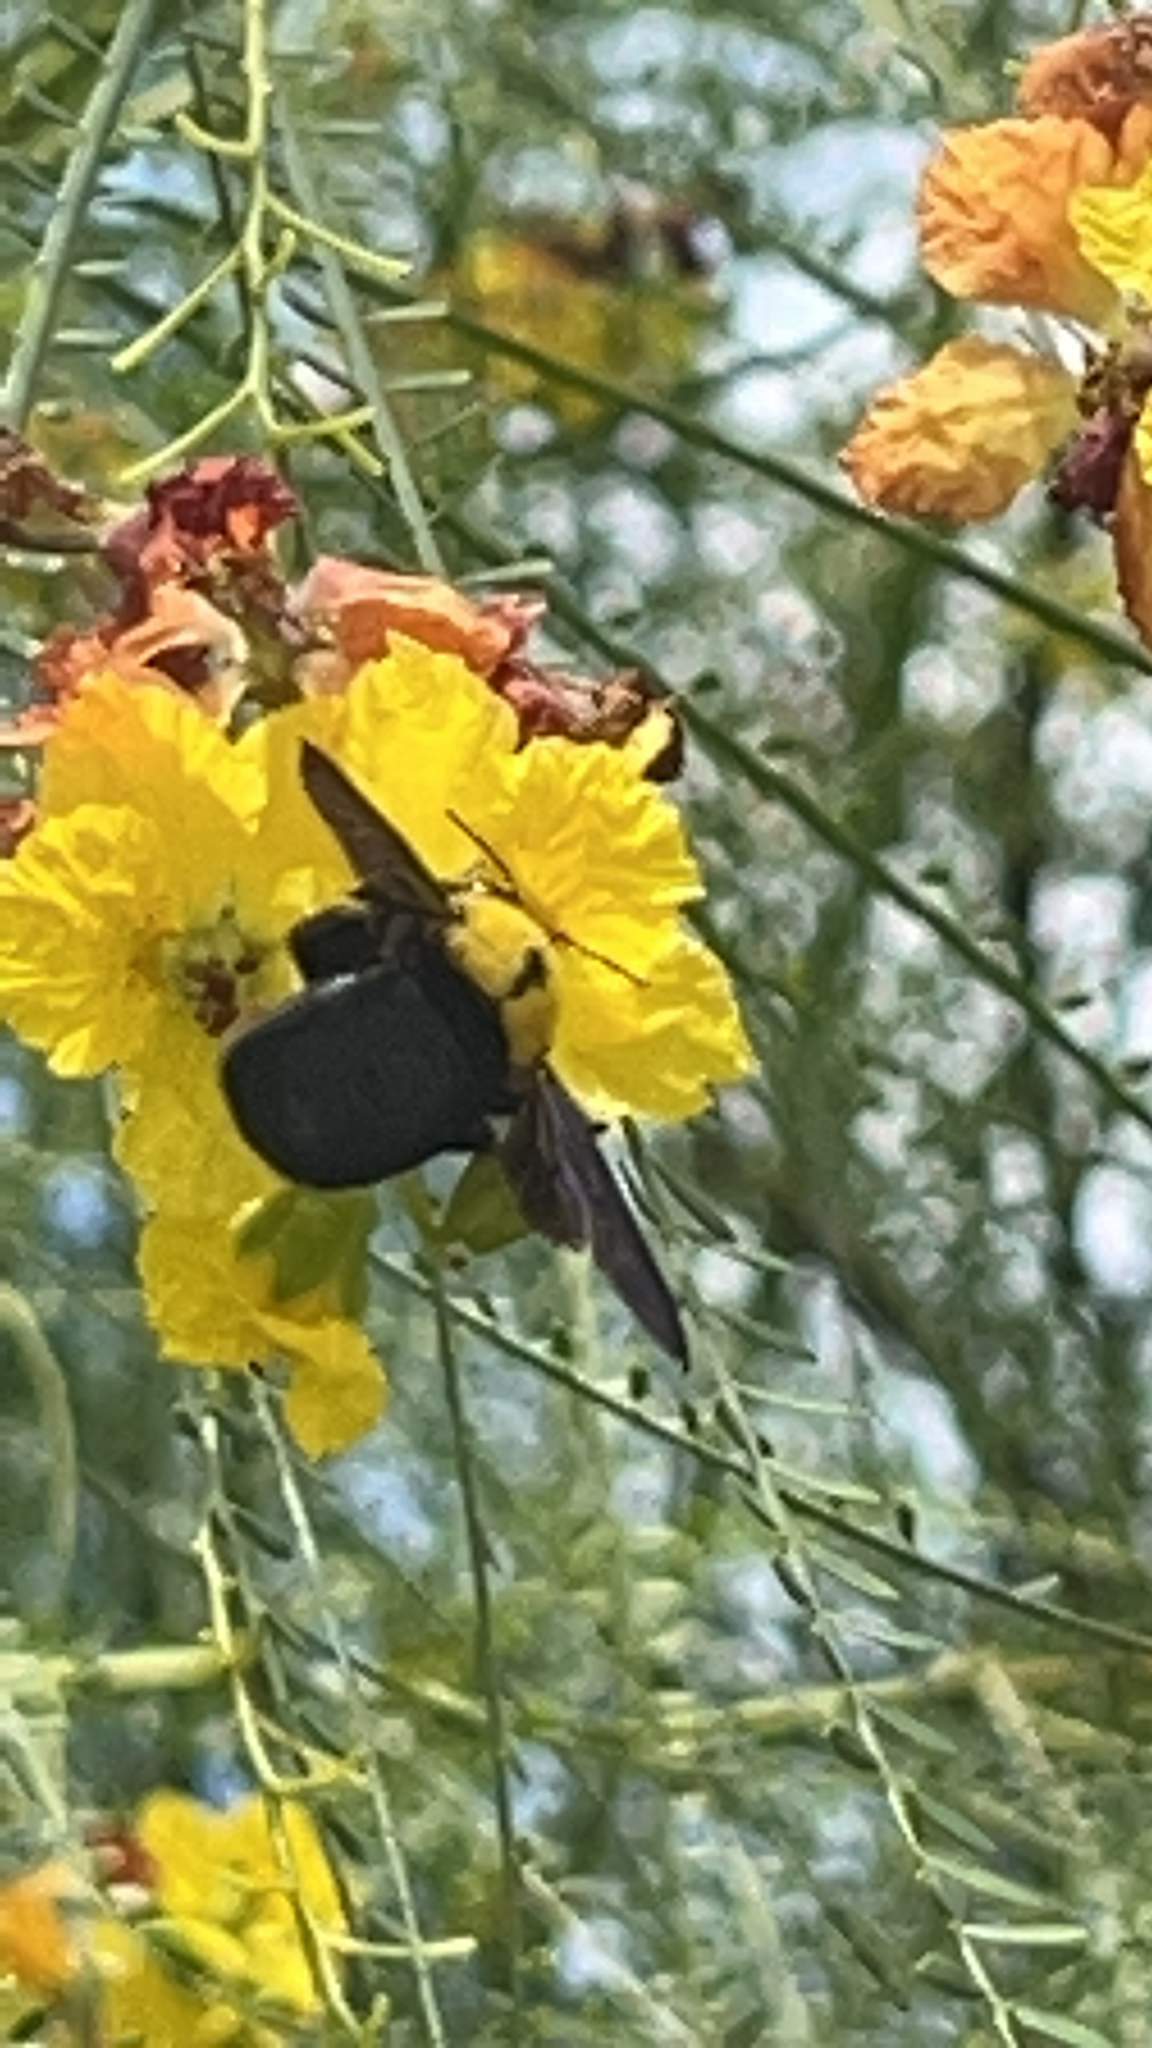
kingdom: Animalia
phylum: Arthropoda
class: Insecta
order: Hymenoptera
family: Apidae
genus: Xylocopa
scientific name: Xylocopa pubescens
